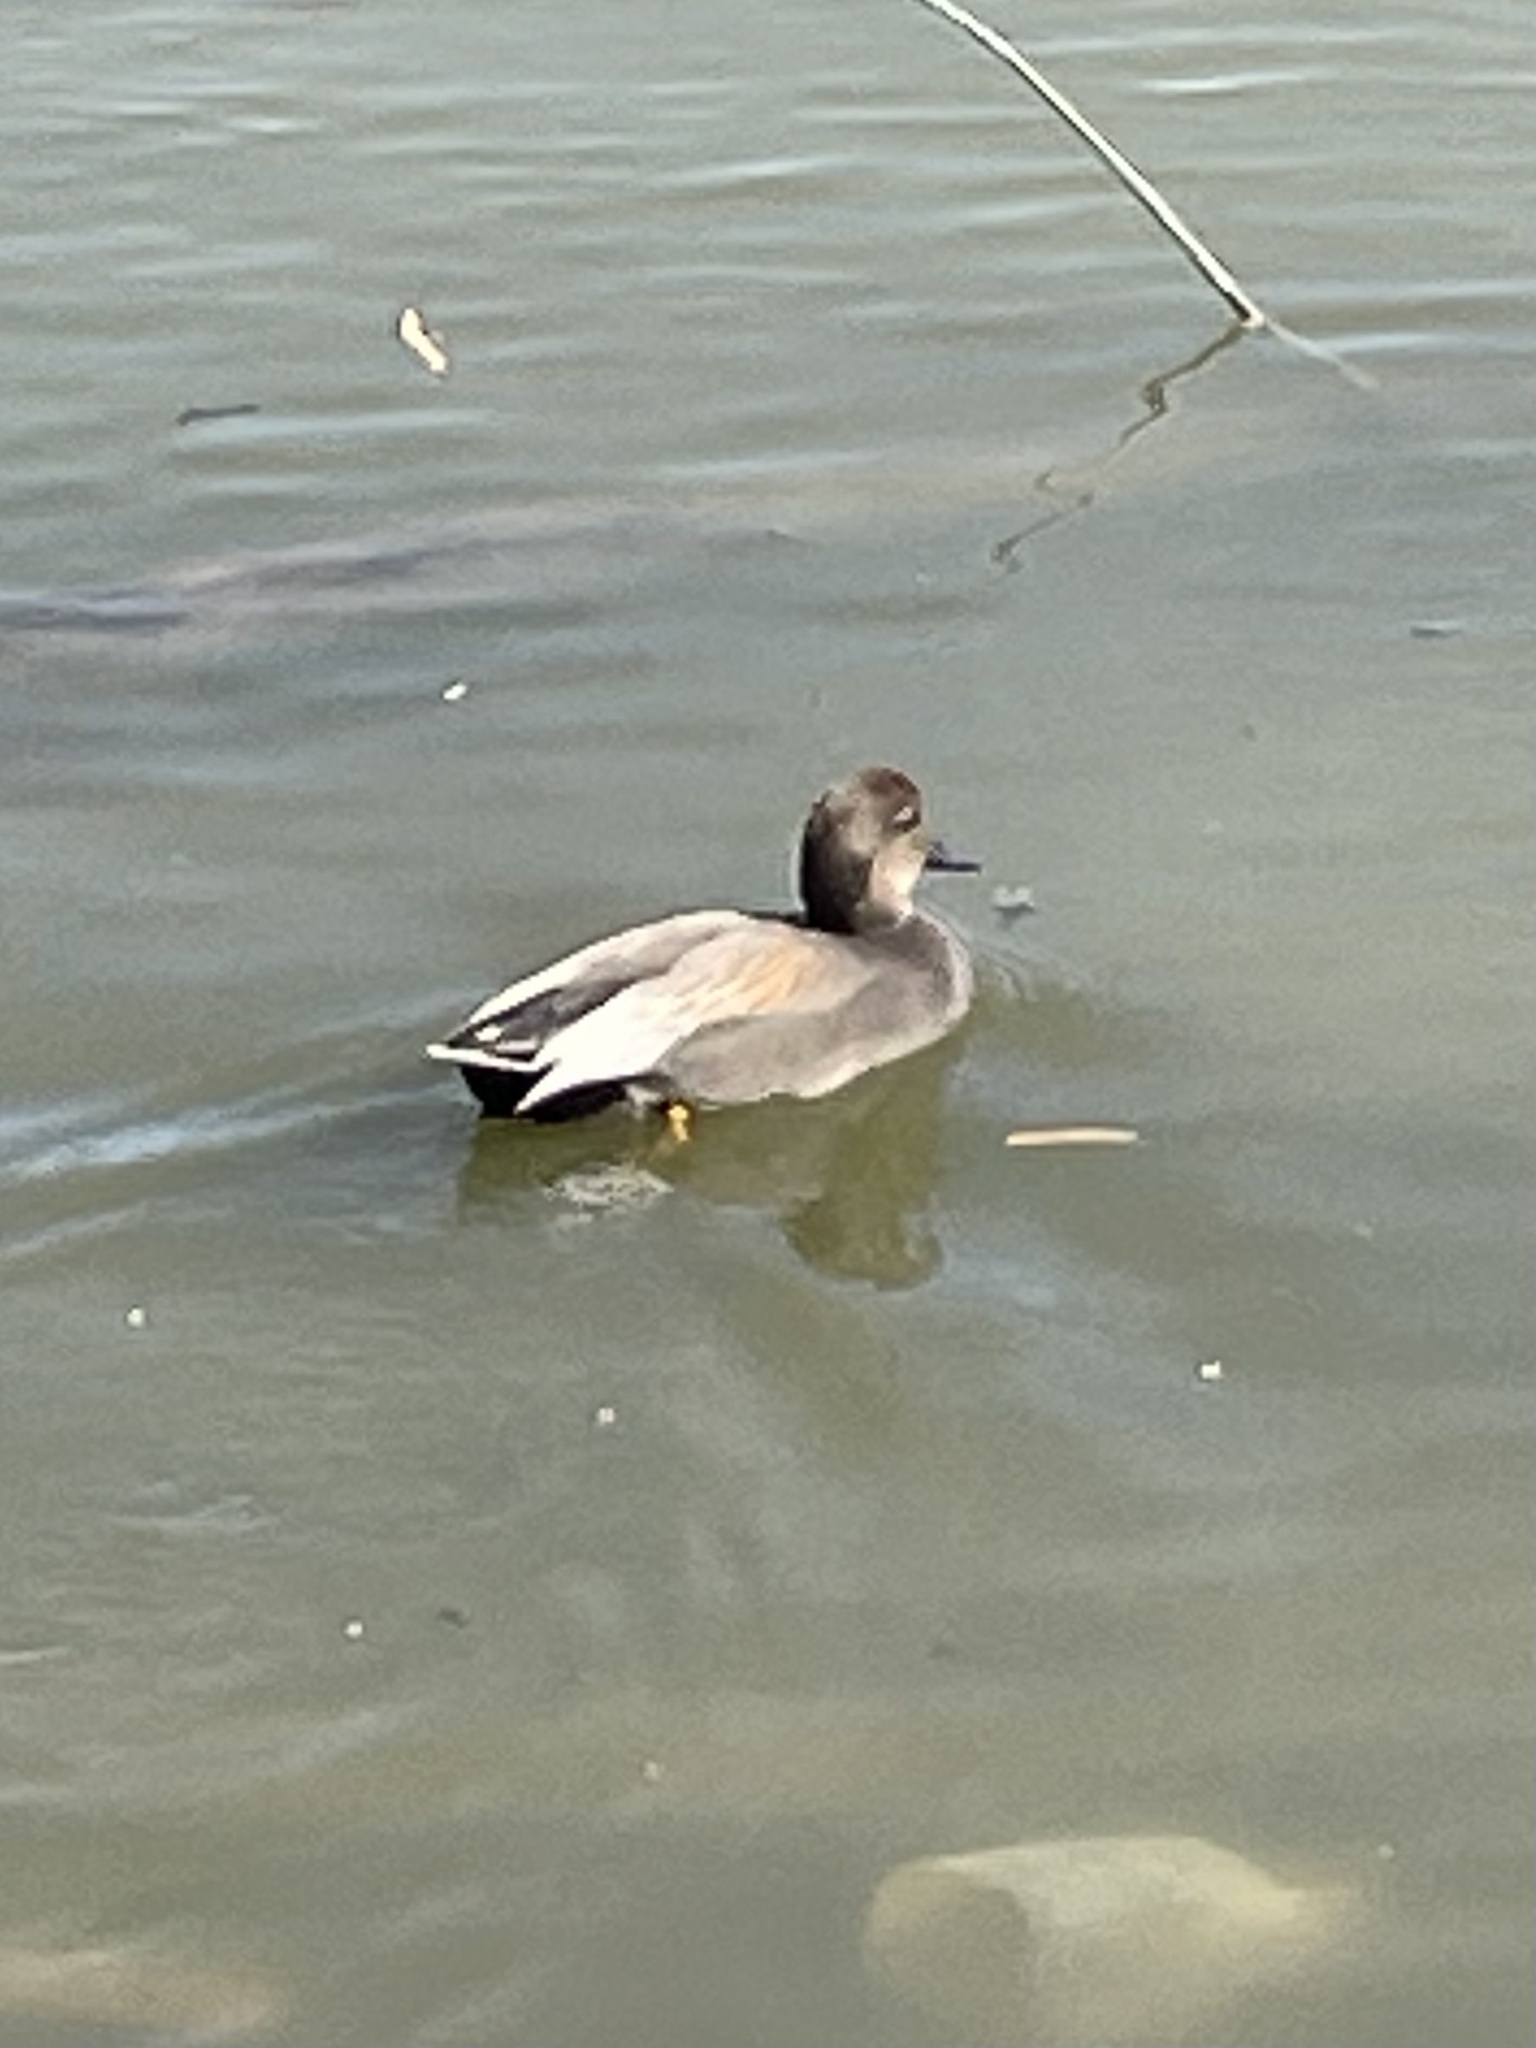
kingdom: Animalia
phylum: Chordata
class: Aves
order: Anseriformes
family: Anatidae
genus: Mareca
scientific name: Mareca strepera
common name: Gadwall
